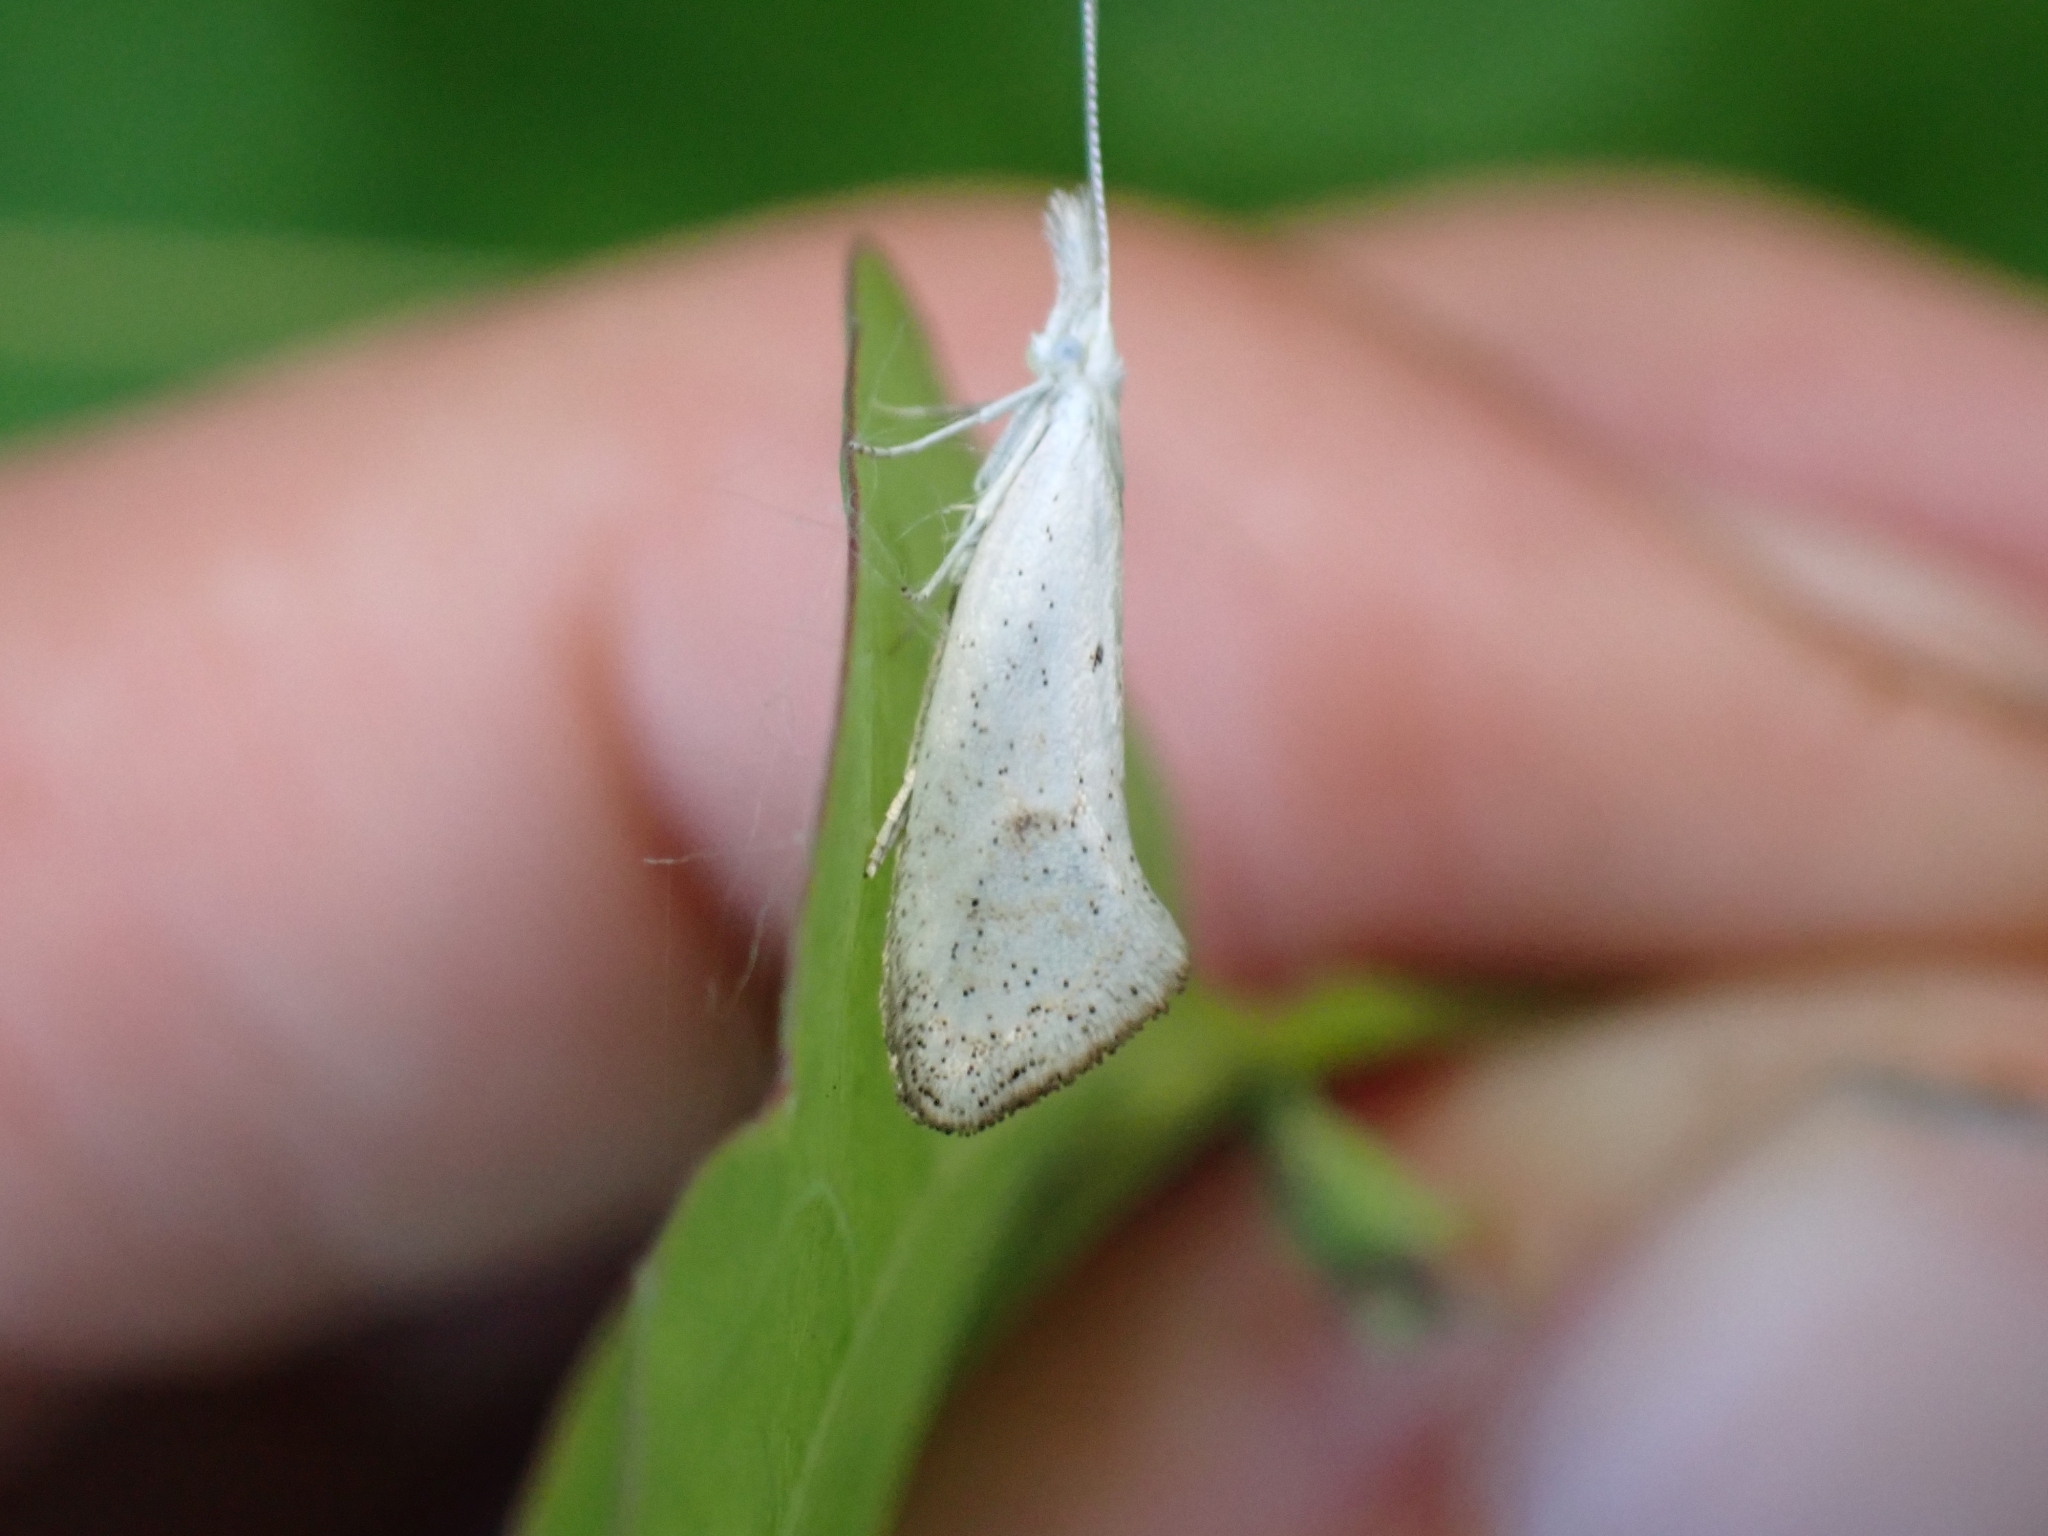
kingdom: Animalia
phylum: Arthropoda
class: Insecta
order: Lepidoptera
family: Ypsolophidae
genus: Euceratia
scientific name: Euceratia castella
